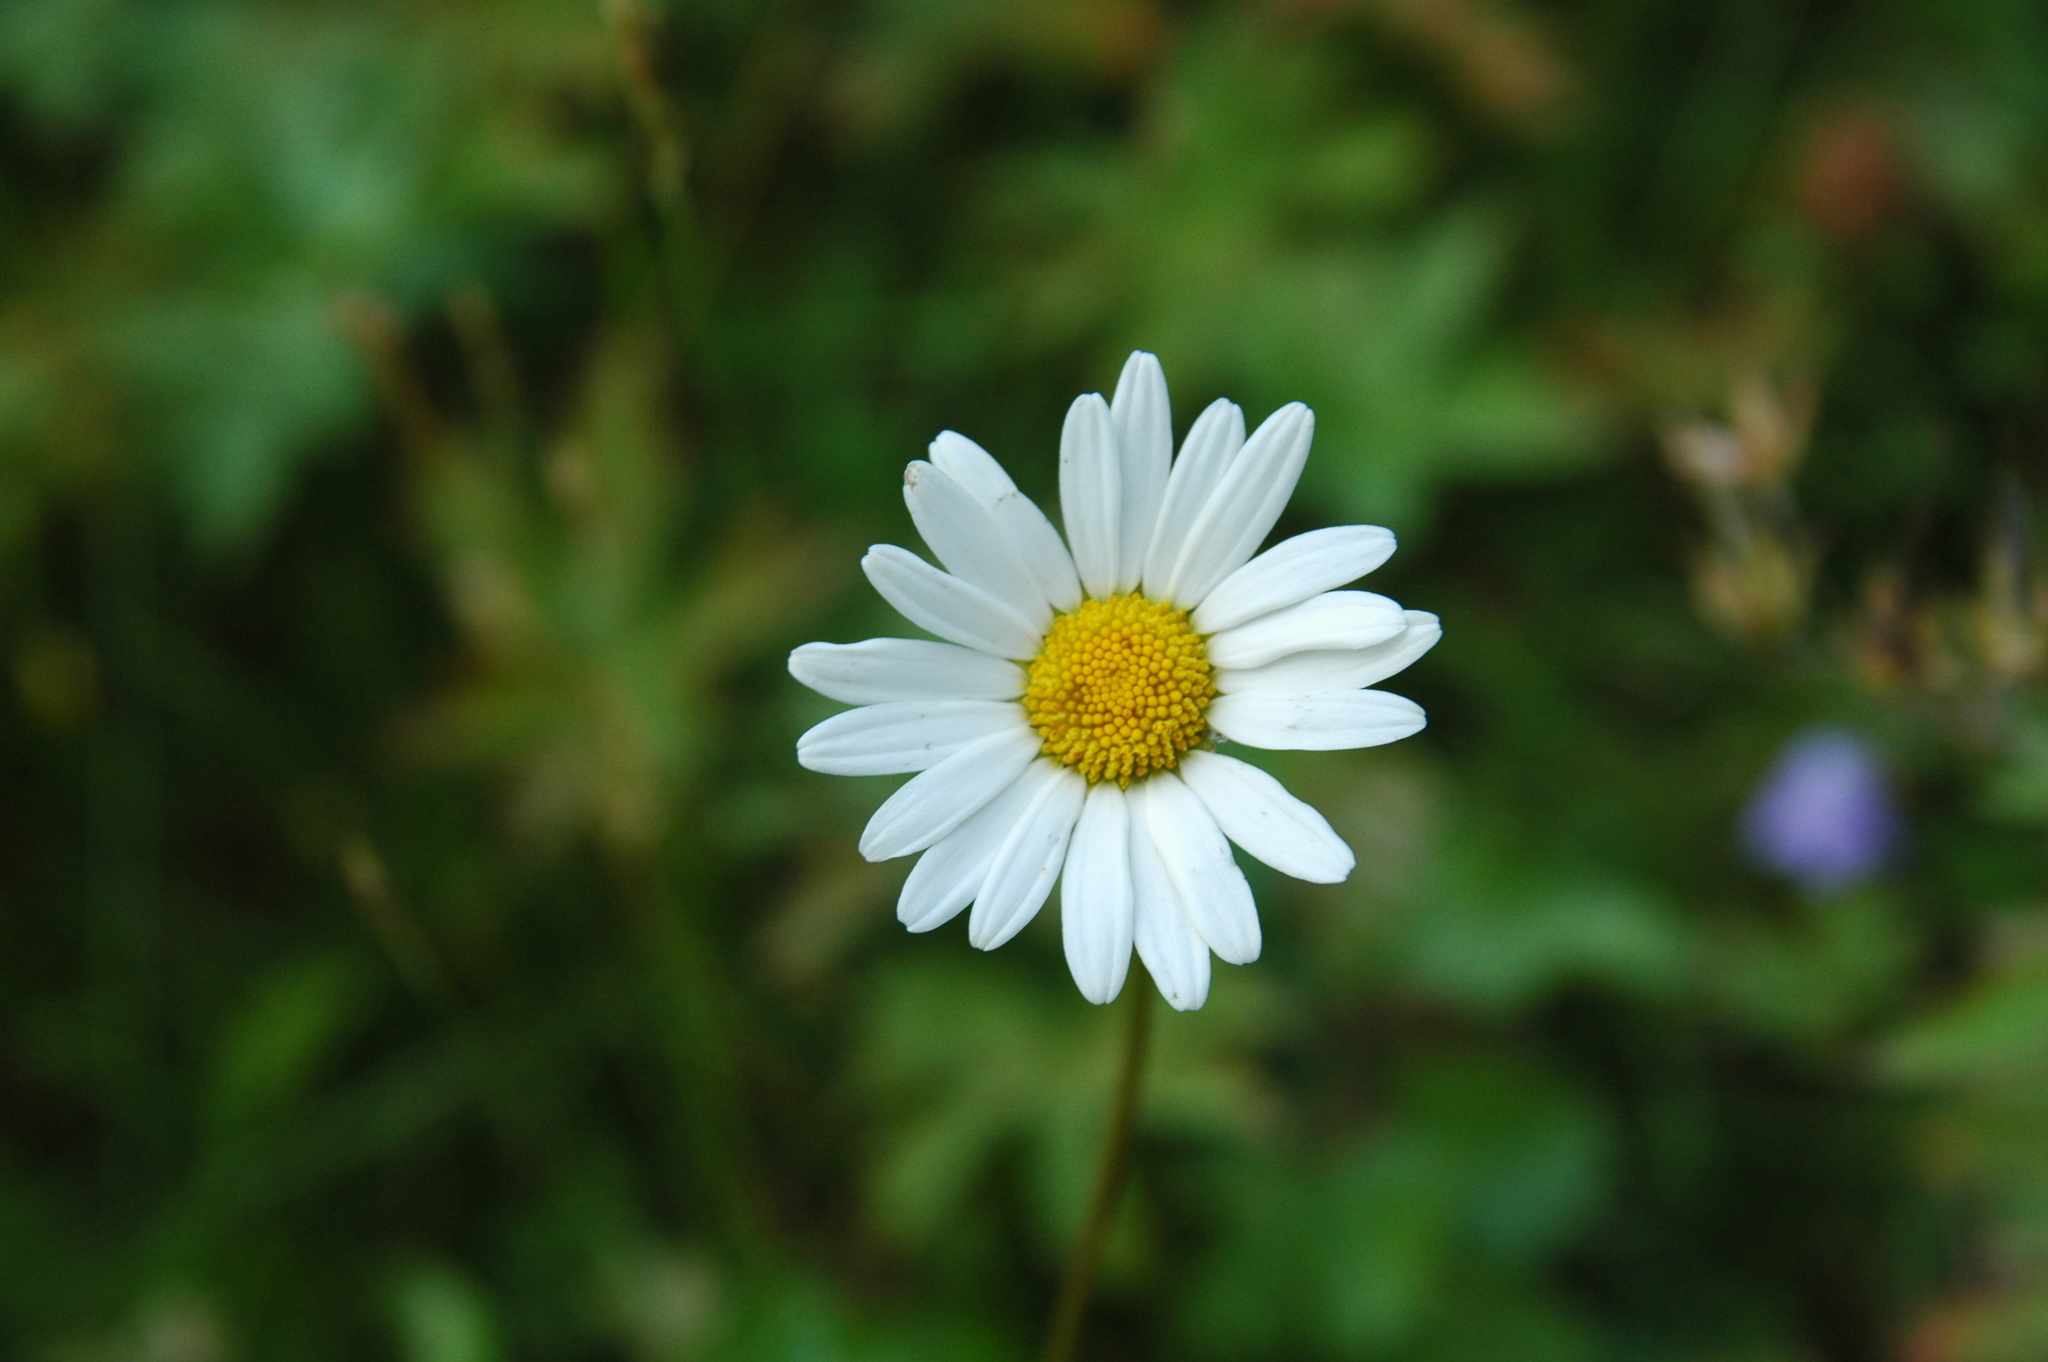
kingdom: Plantae
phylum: Tracheophyta
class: Magnoliopsida
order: Asterales
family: Asteraceae
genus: Leucanthemum
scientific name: Leucanthemum vulgare
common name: Oxeye daisy
